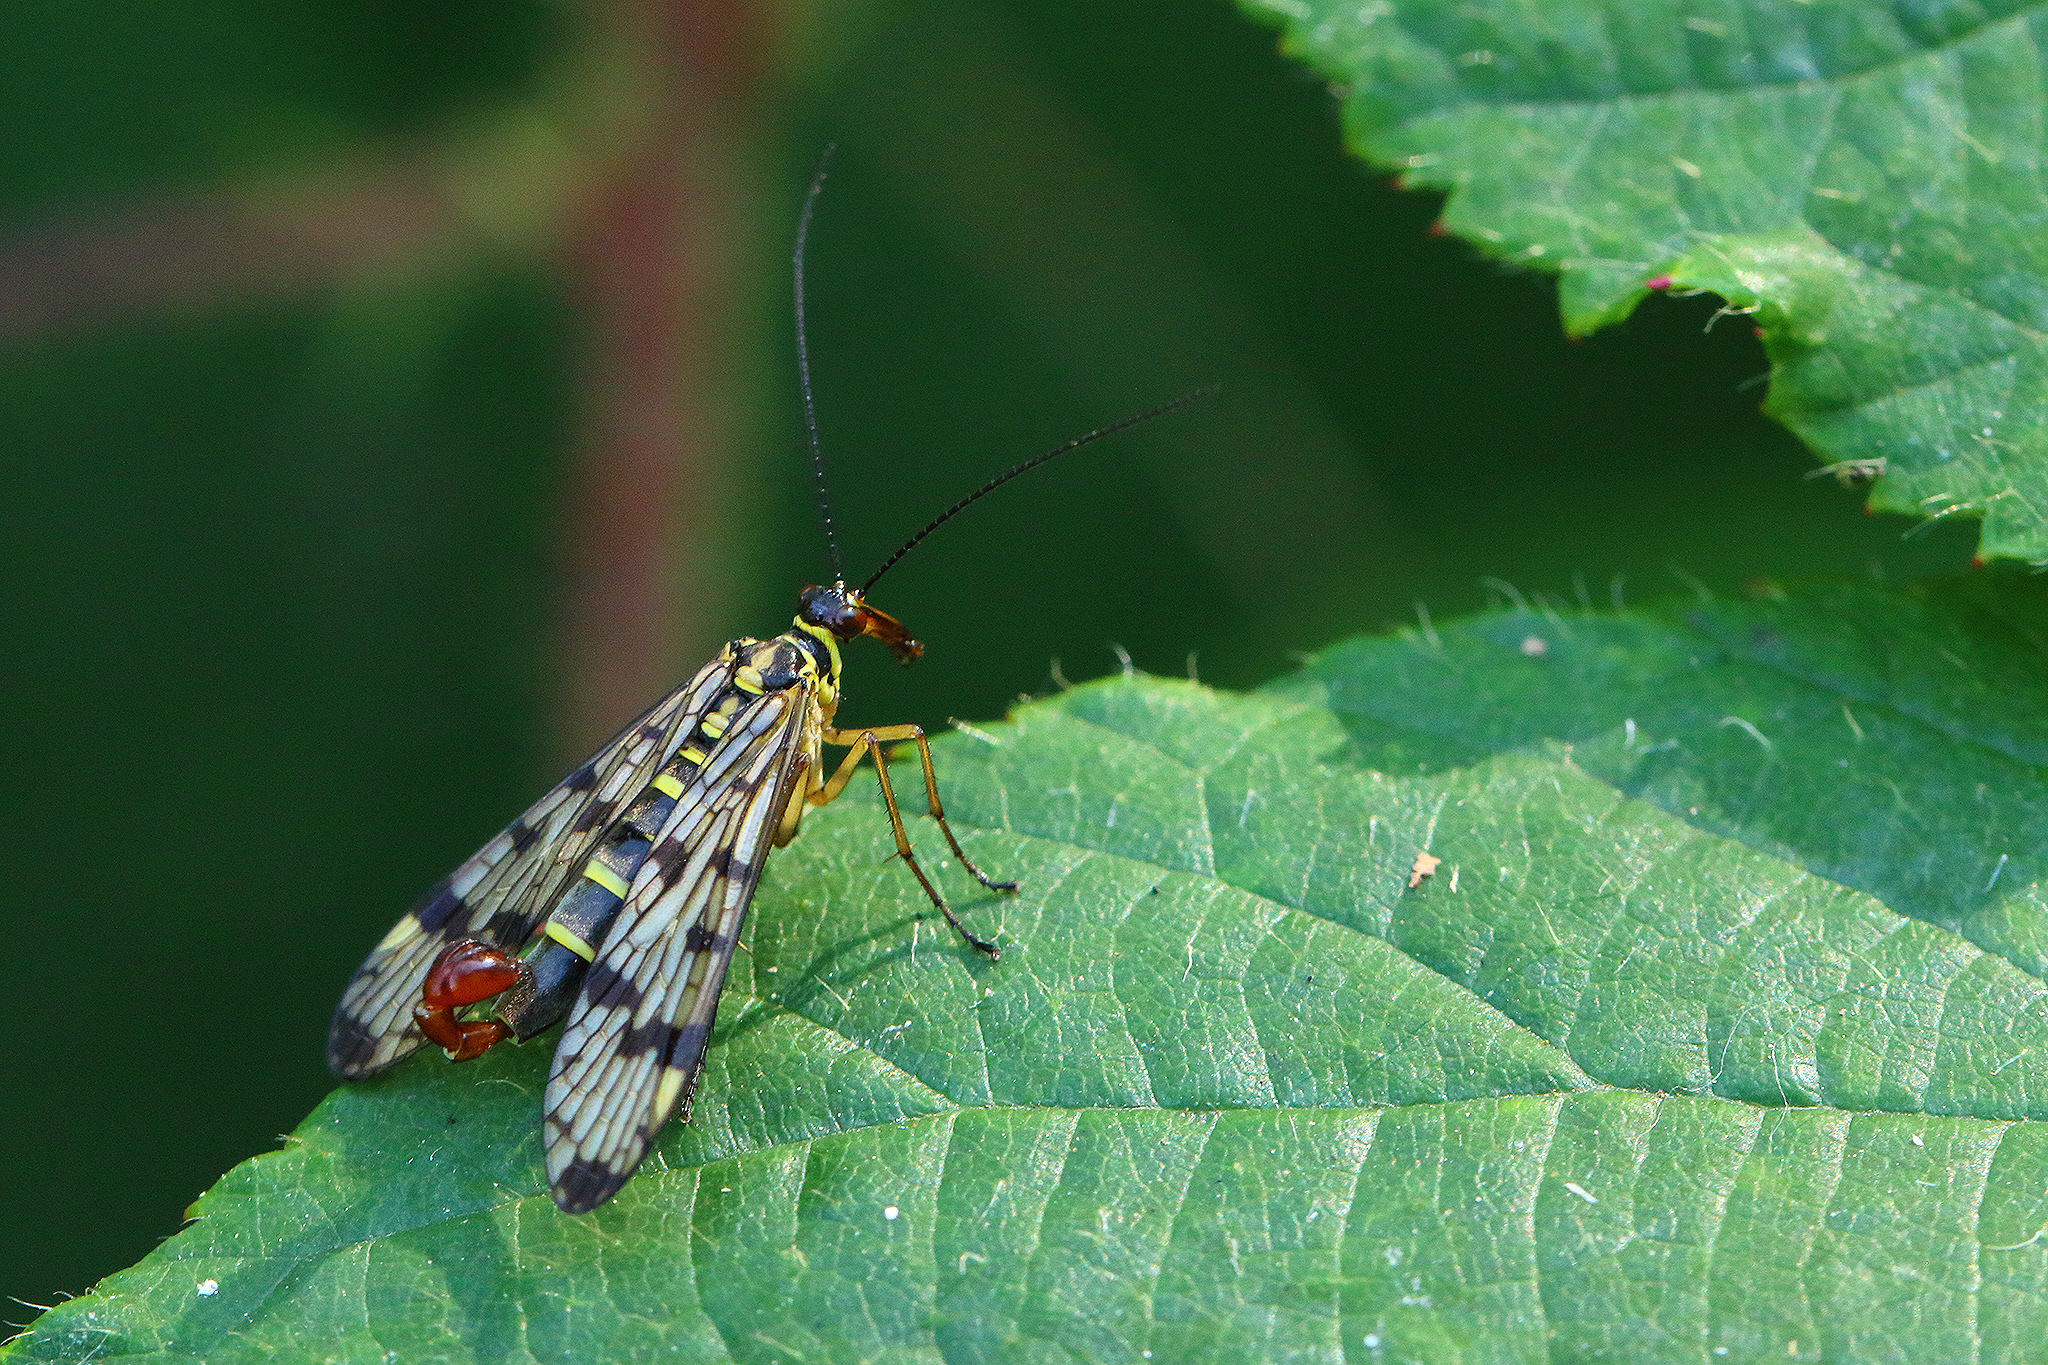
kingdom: Animalia
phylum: Arthropoda
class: Insecta
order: Mecoptera
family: Panorpidae
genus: Panorpa
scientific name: Panorpa communis
